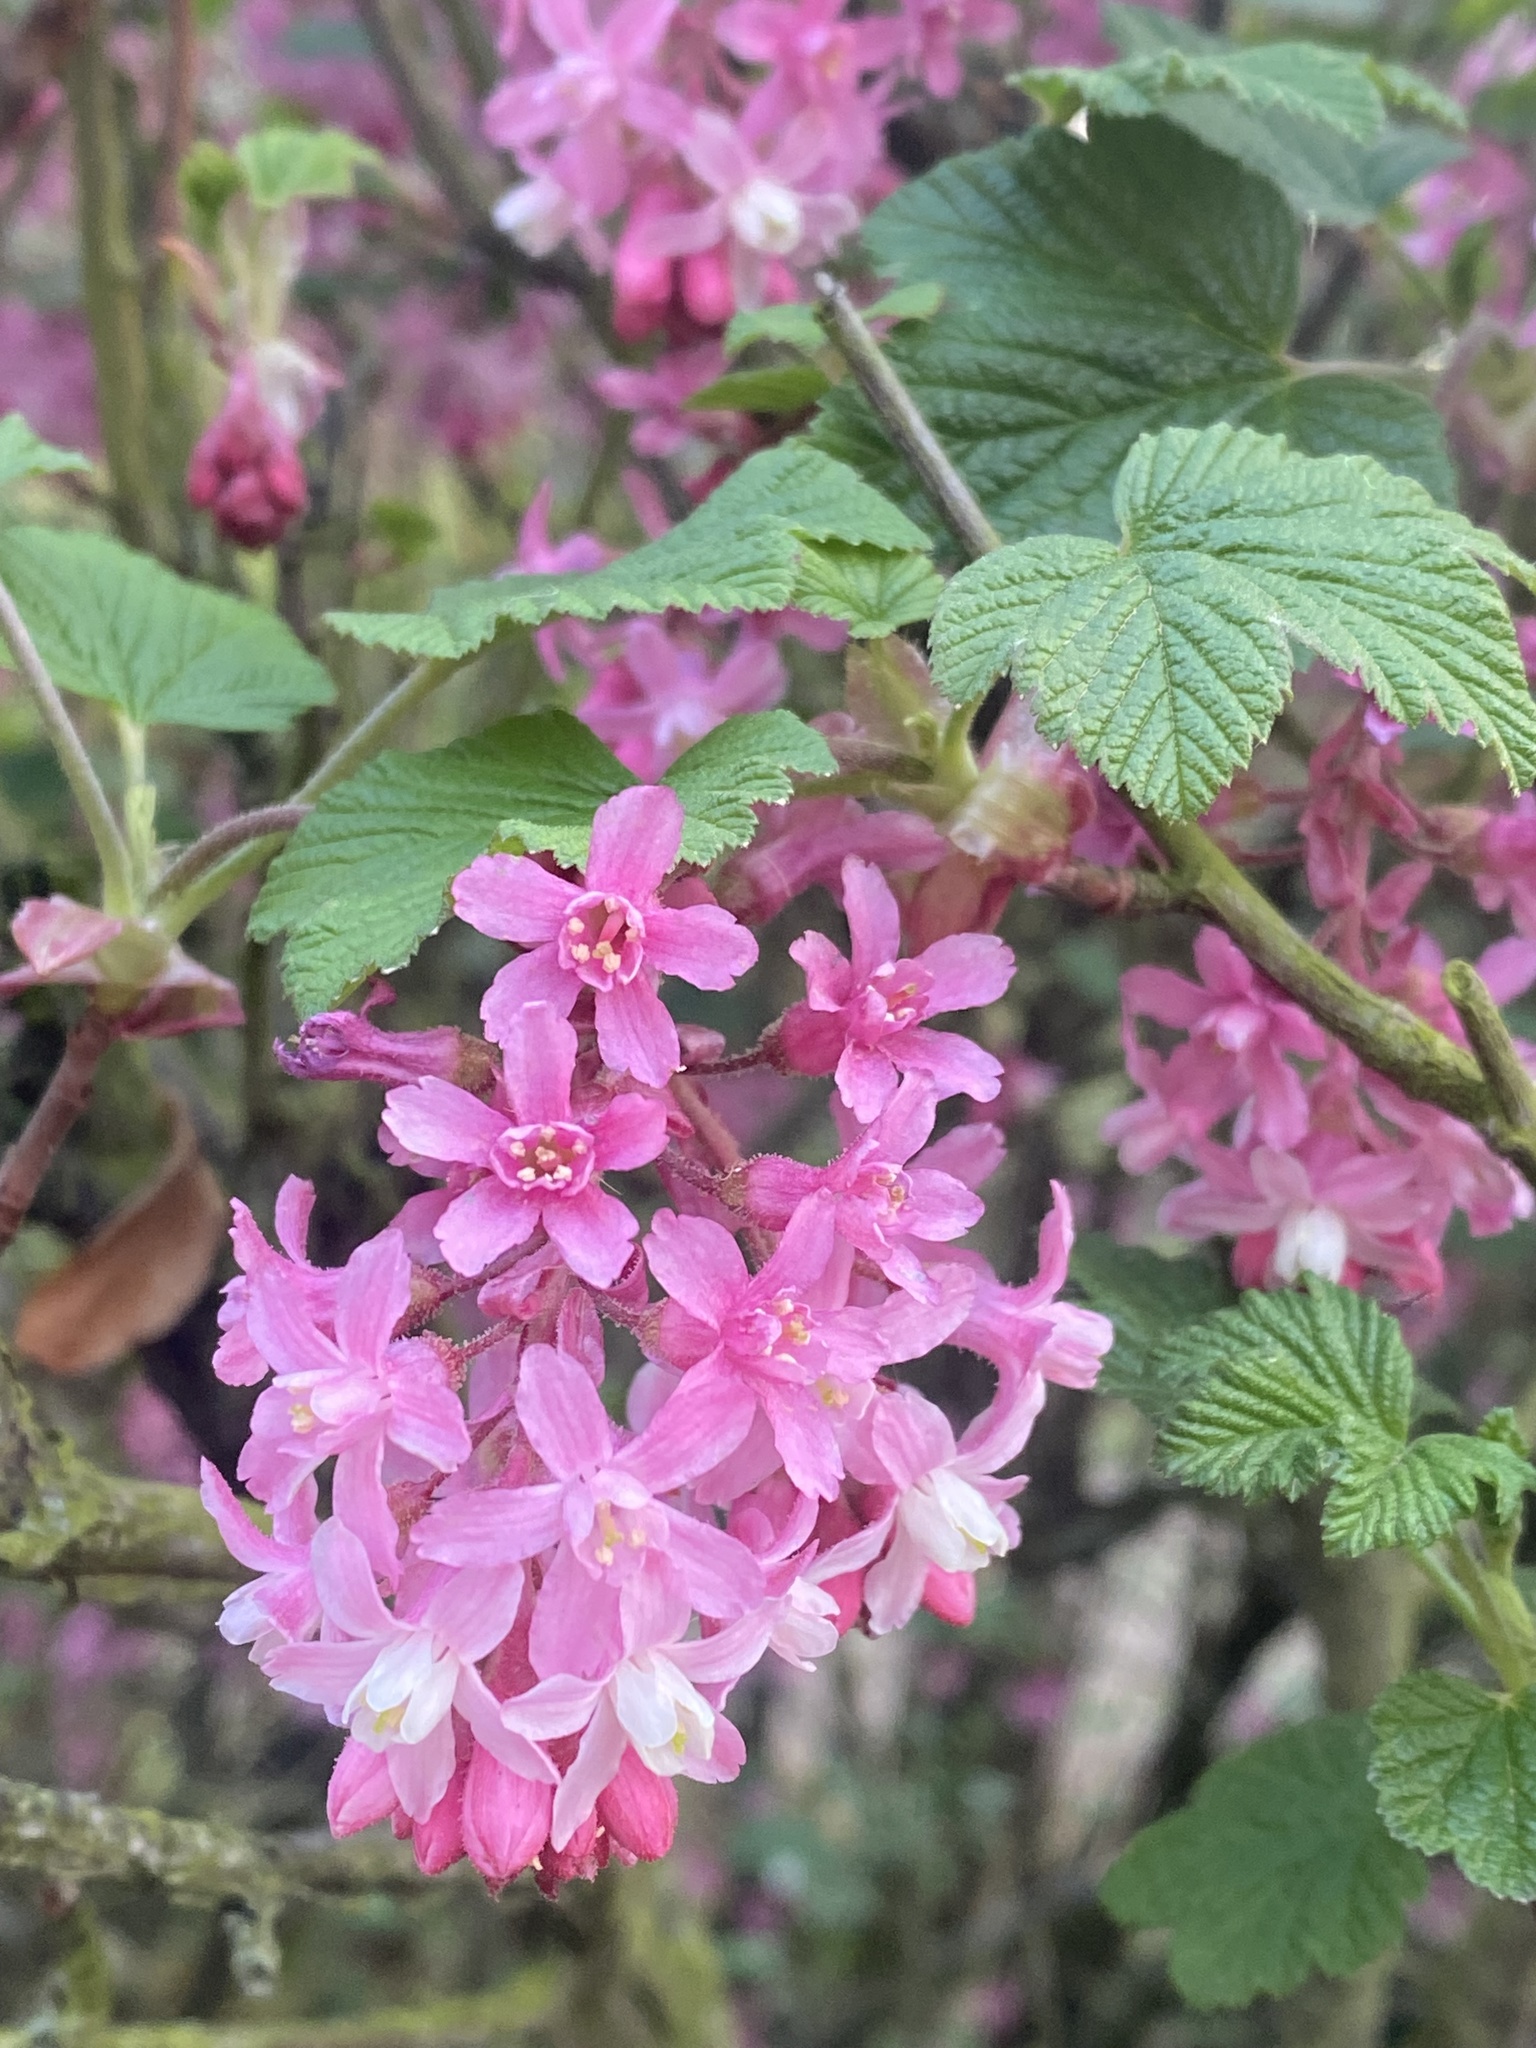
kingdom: Plantae
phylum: Tracheophyta
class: Magnoliopsida
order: Saxifragales
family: Grossulariaceae
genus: Ribes
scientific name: Ribes sanguineum
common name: Flowering currant
